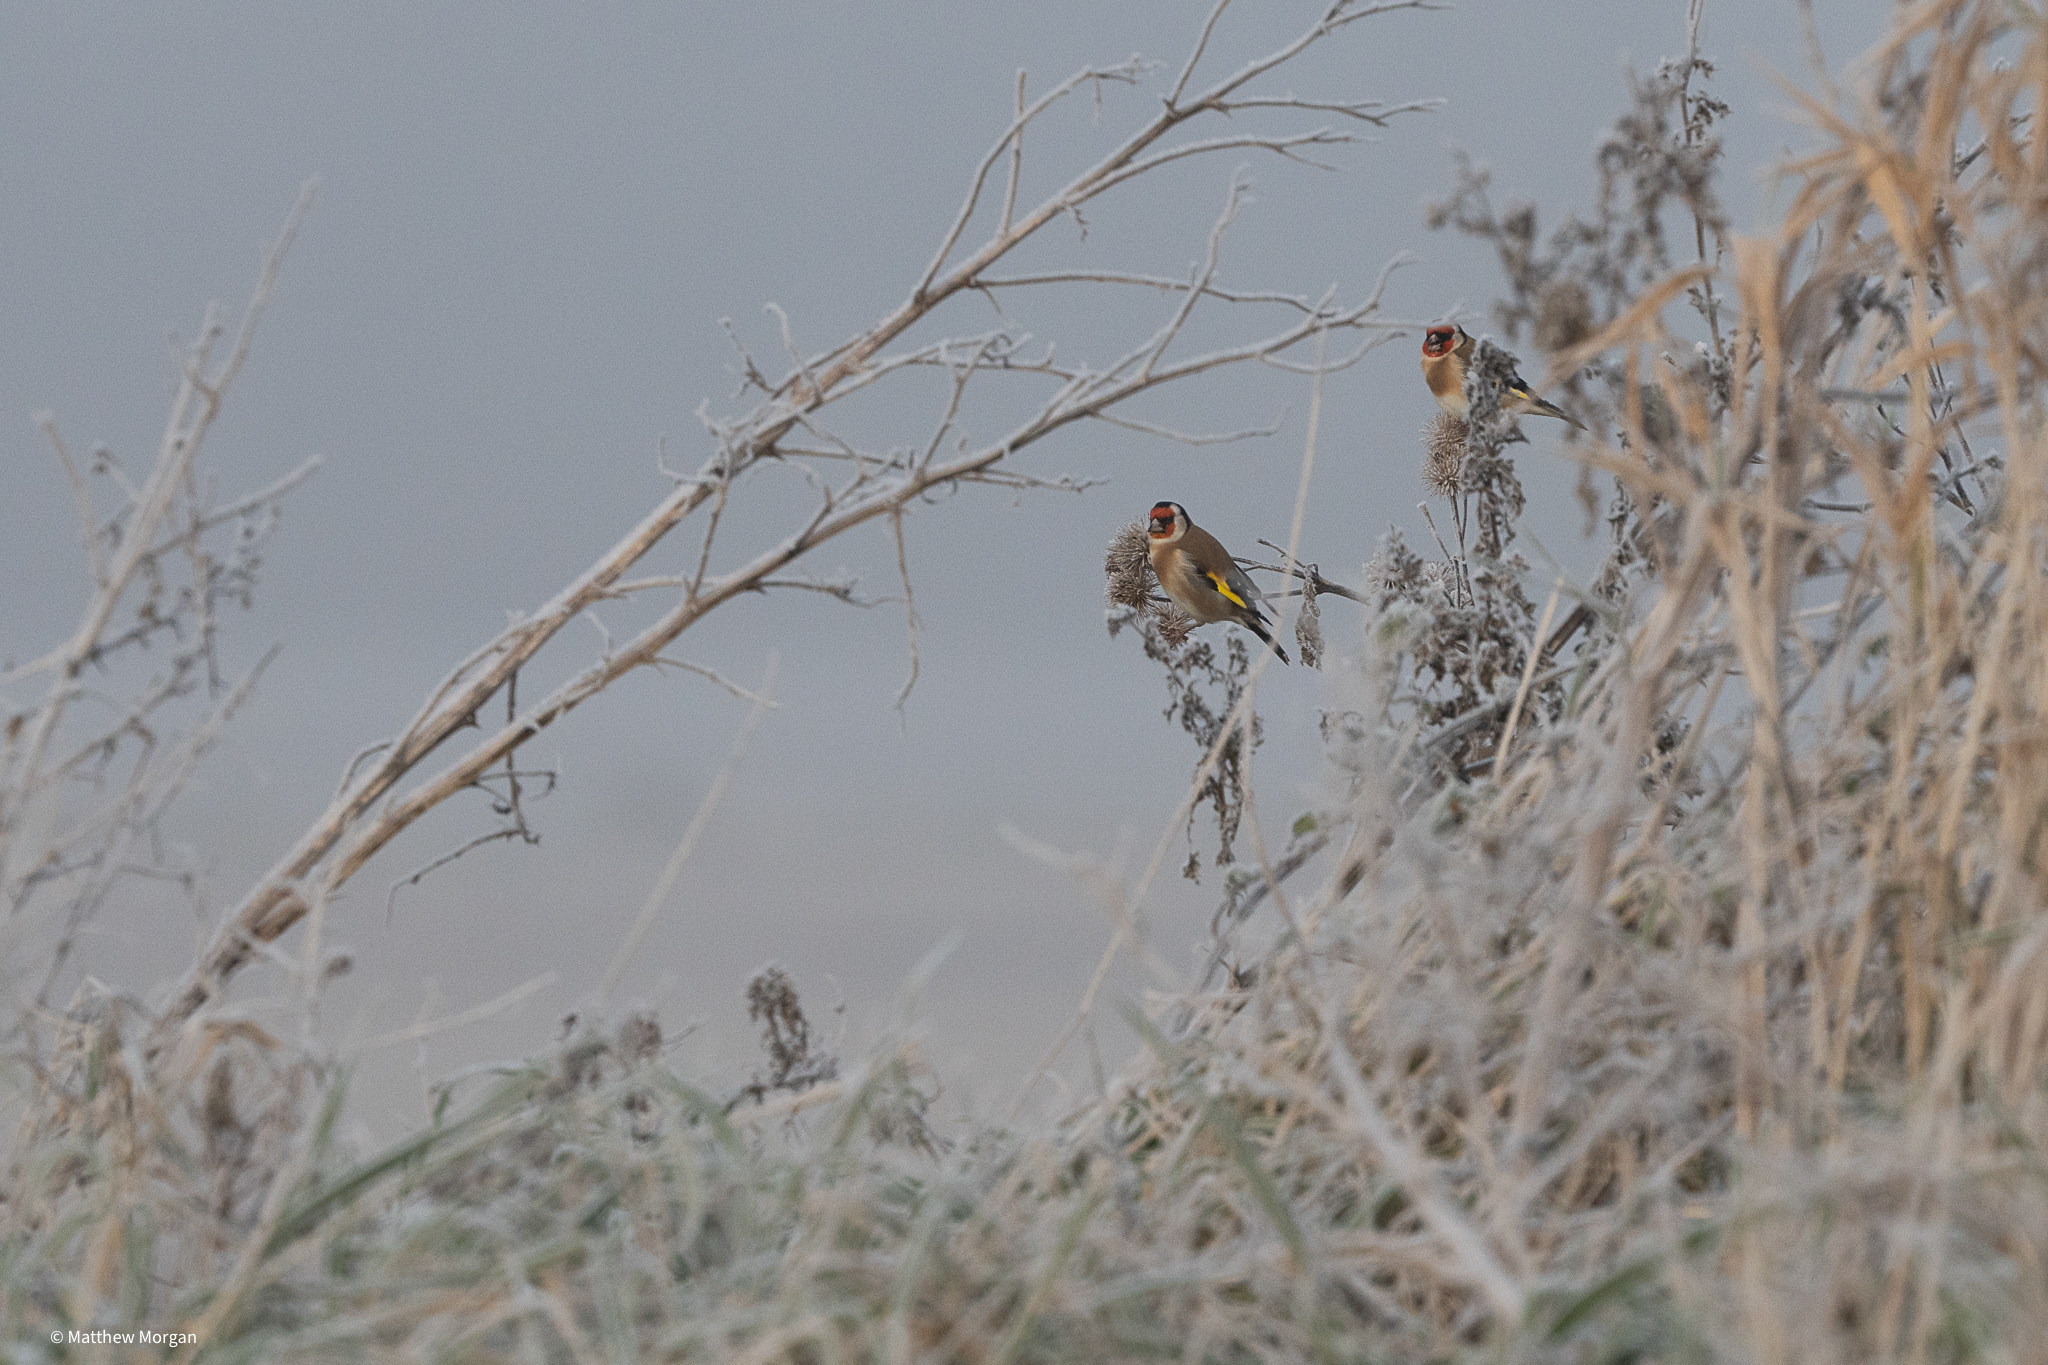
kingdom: Animalia
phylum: Chordata
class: Aves
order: Passeriformes
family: Fringillidae
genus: Carduelis
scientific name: Carduelis carduelis
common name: European goldfinch
